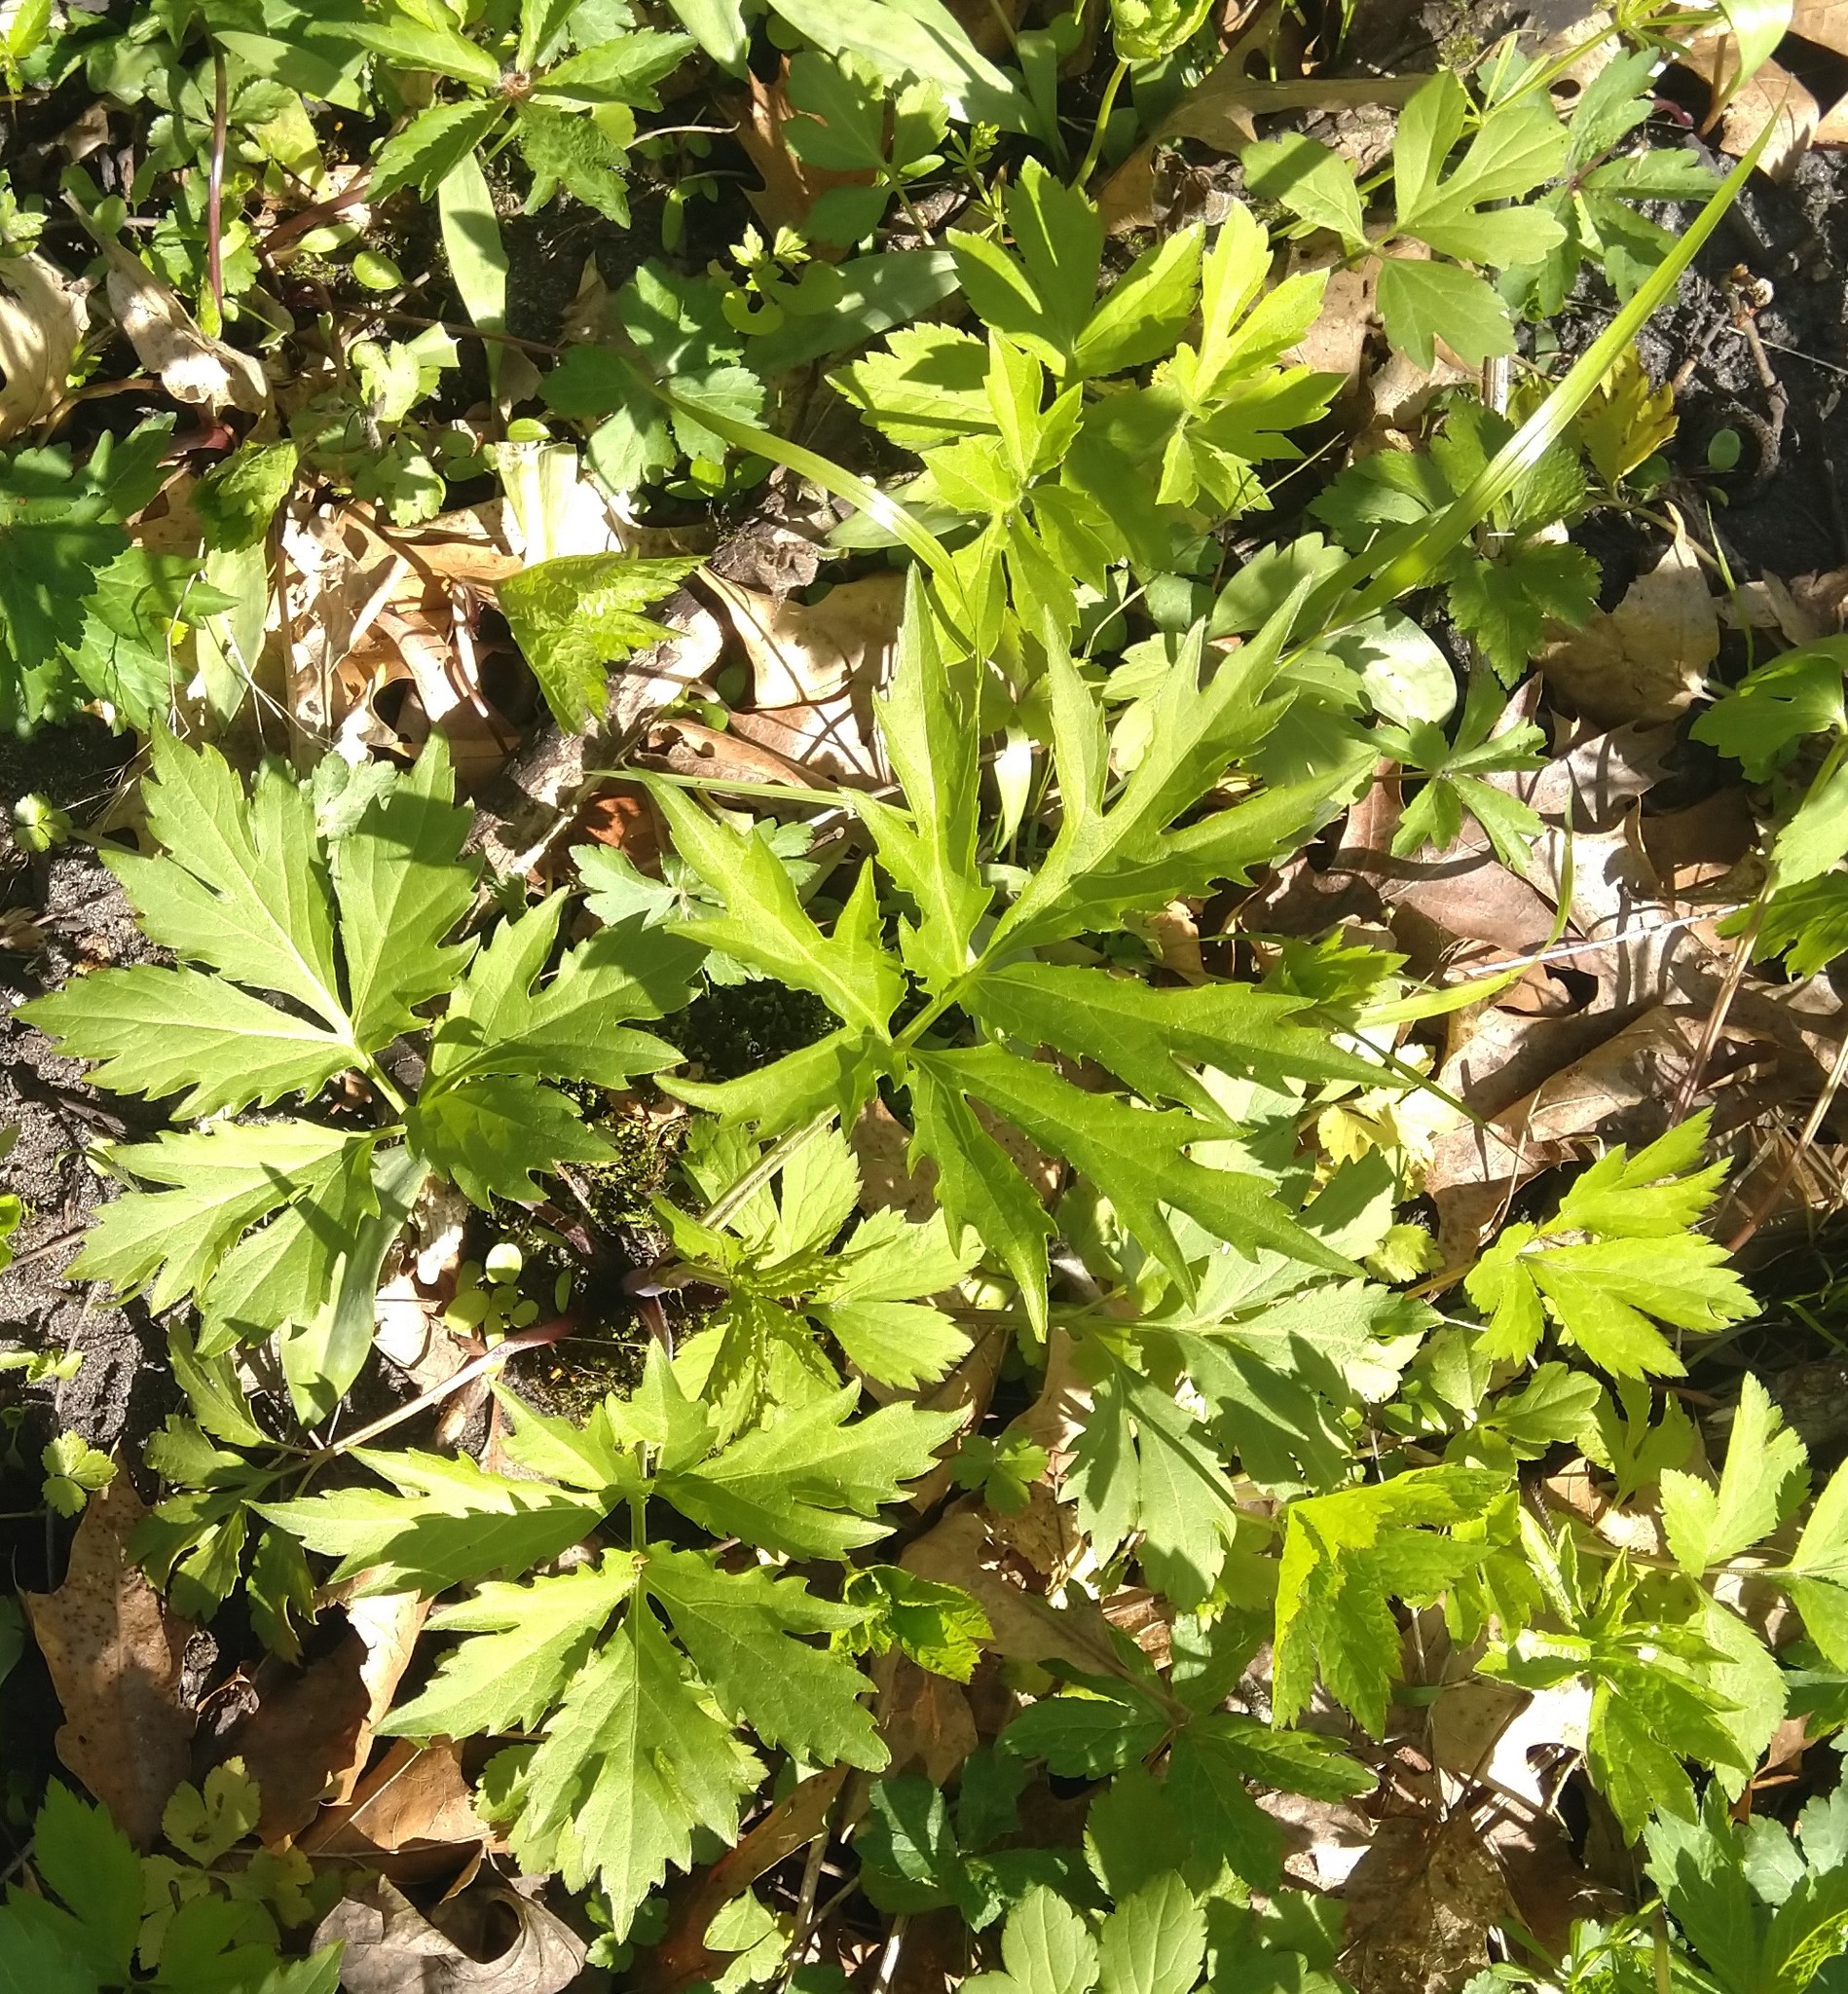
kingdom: Plantae
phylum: Tracheophyta
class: Magnoliopsida
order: Asterales
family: Asteraceae
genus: Rudbeckia
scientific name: Rudbeckia laciniata
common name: Coneflower
